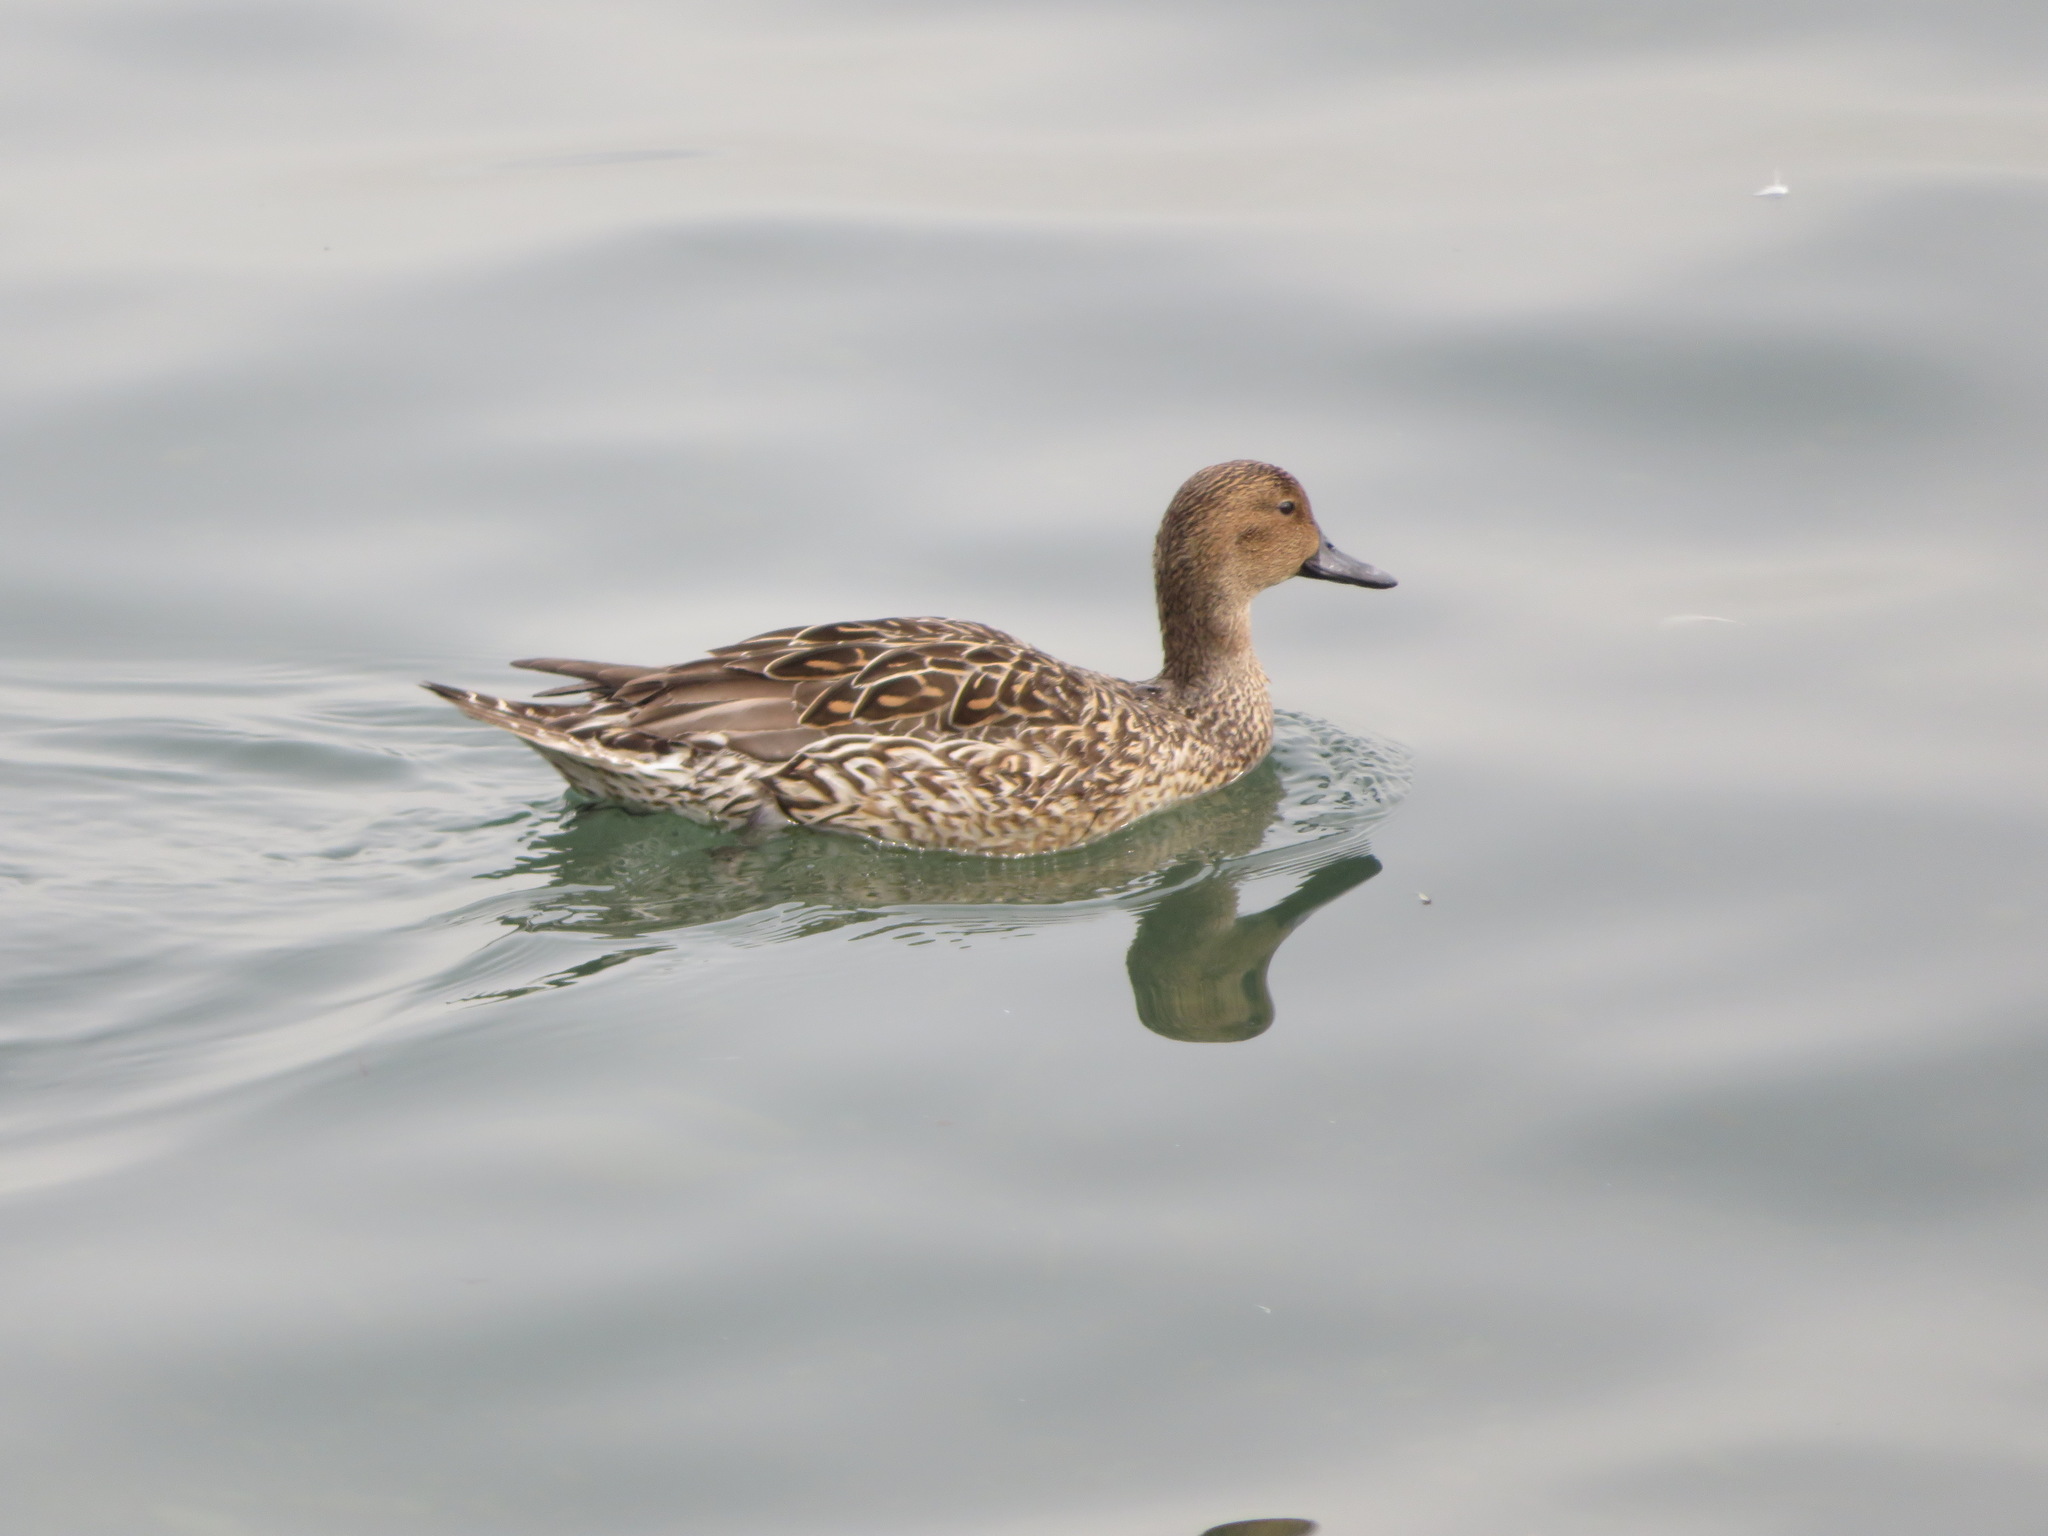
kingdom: Animalia
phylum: Chordata
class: Aves
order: Anseriformes
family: Anatidae
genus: Anas
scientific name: Anas acuta
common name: Northern pintail
